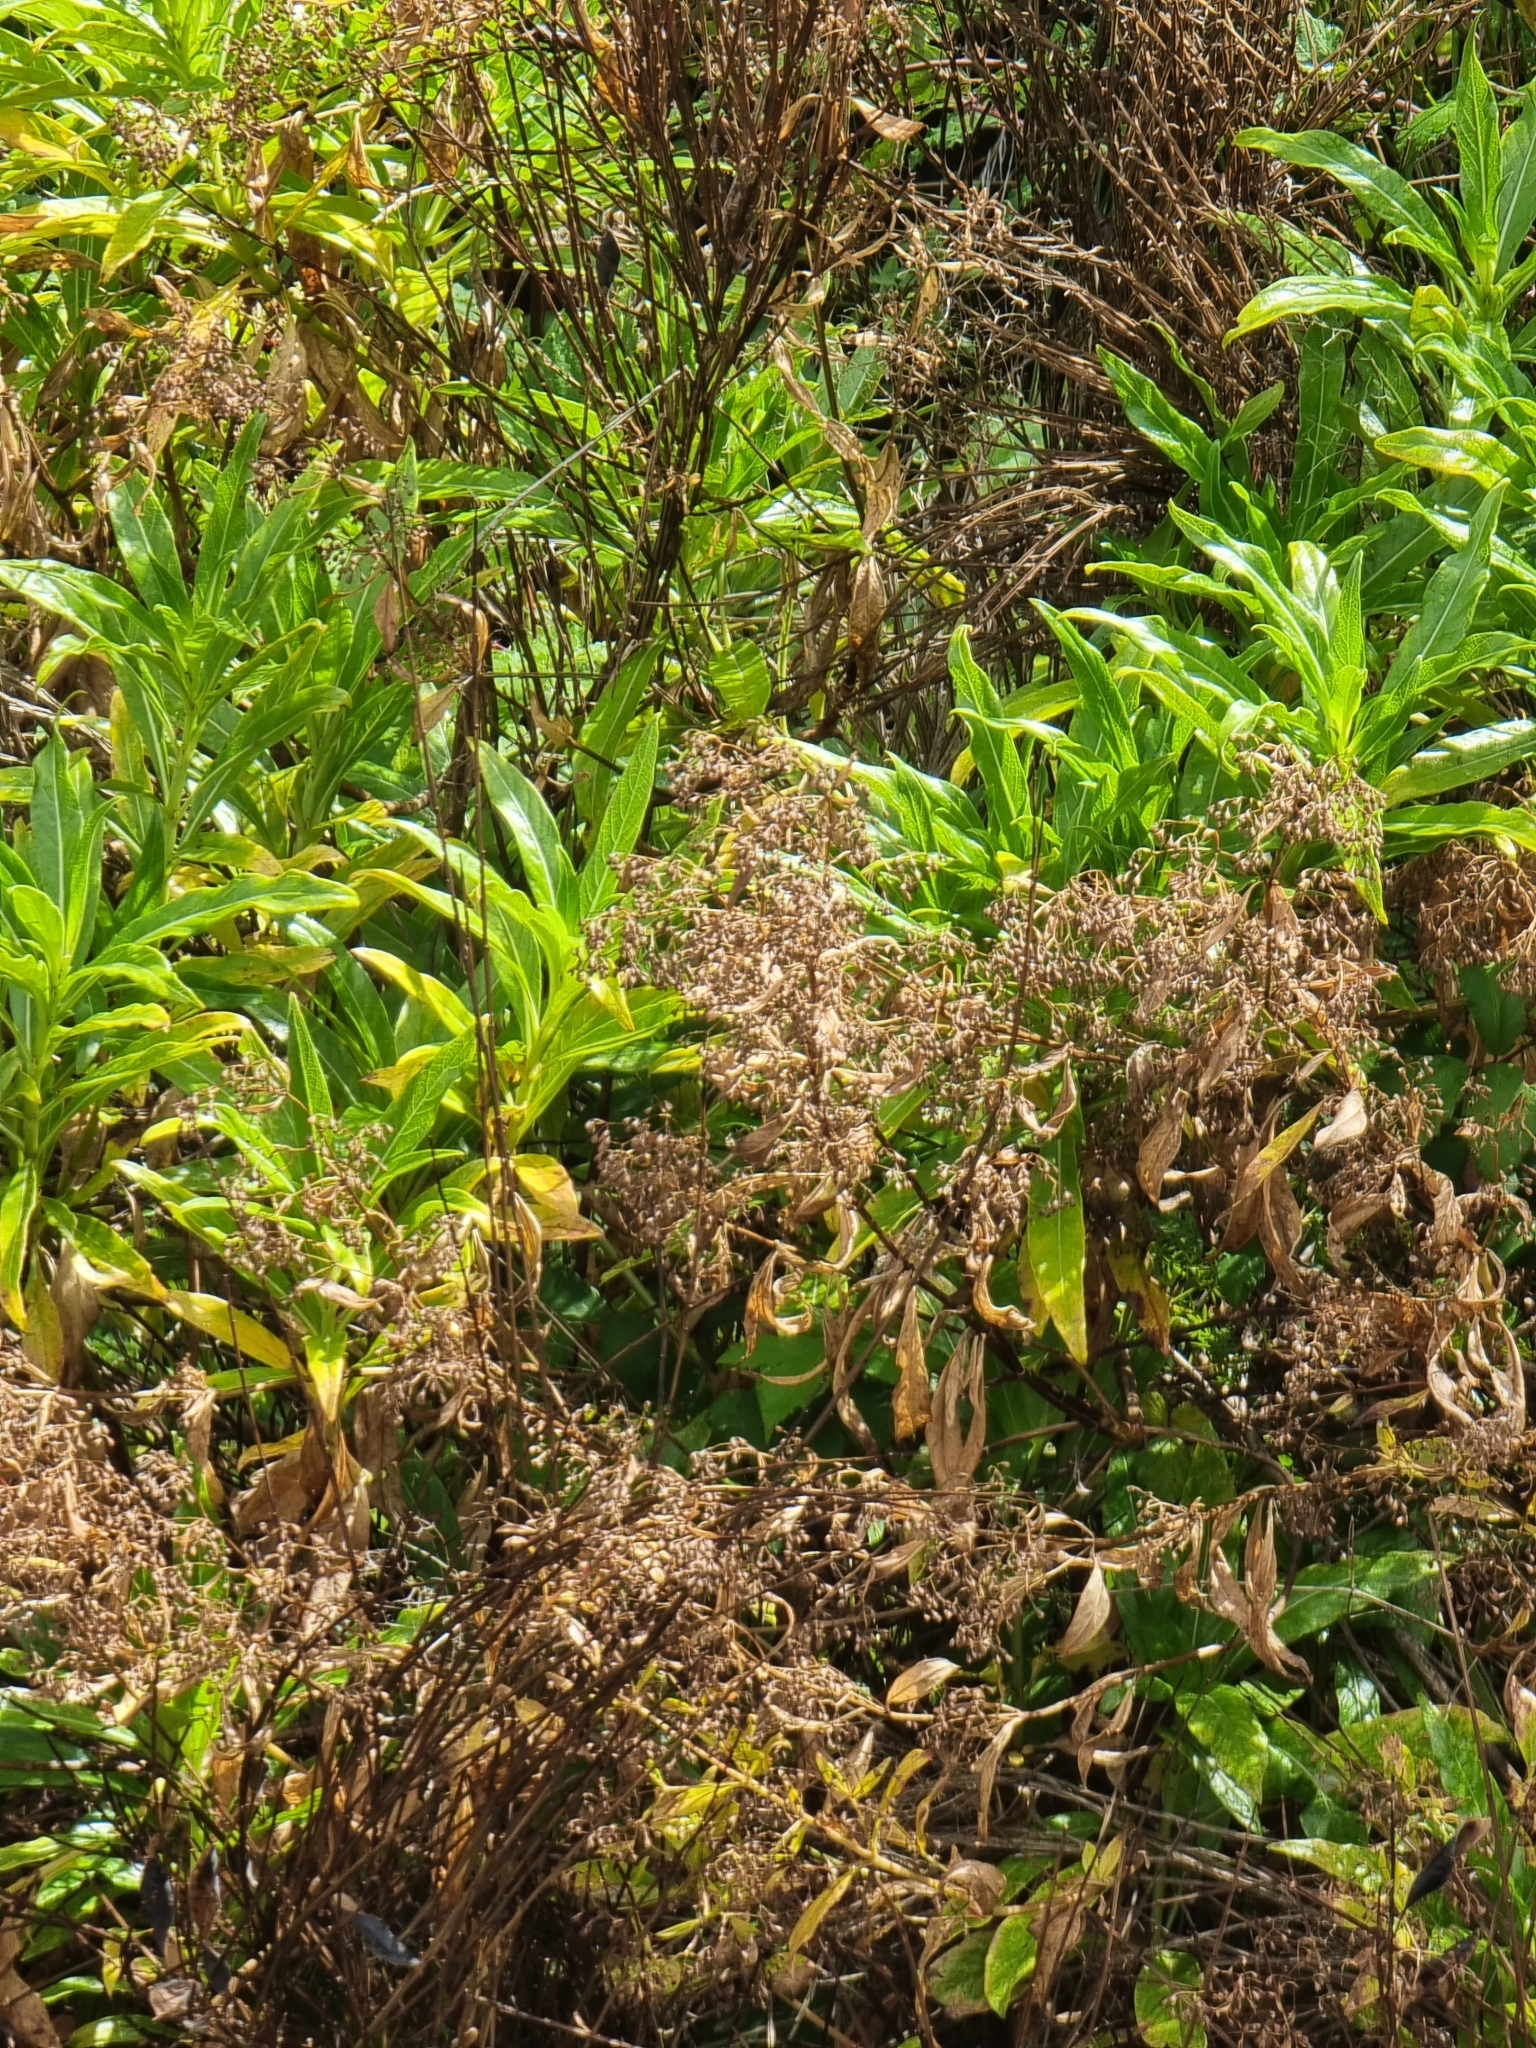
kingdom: Plantae
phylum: Tracheophyta
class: Magnoliopsida
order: Gentianales
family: Rubiaceae
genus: Phyllis
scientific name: Phyllis nobla
